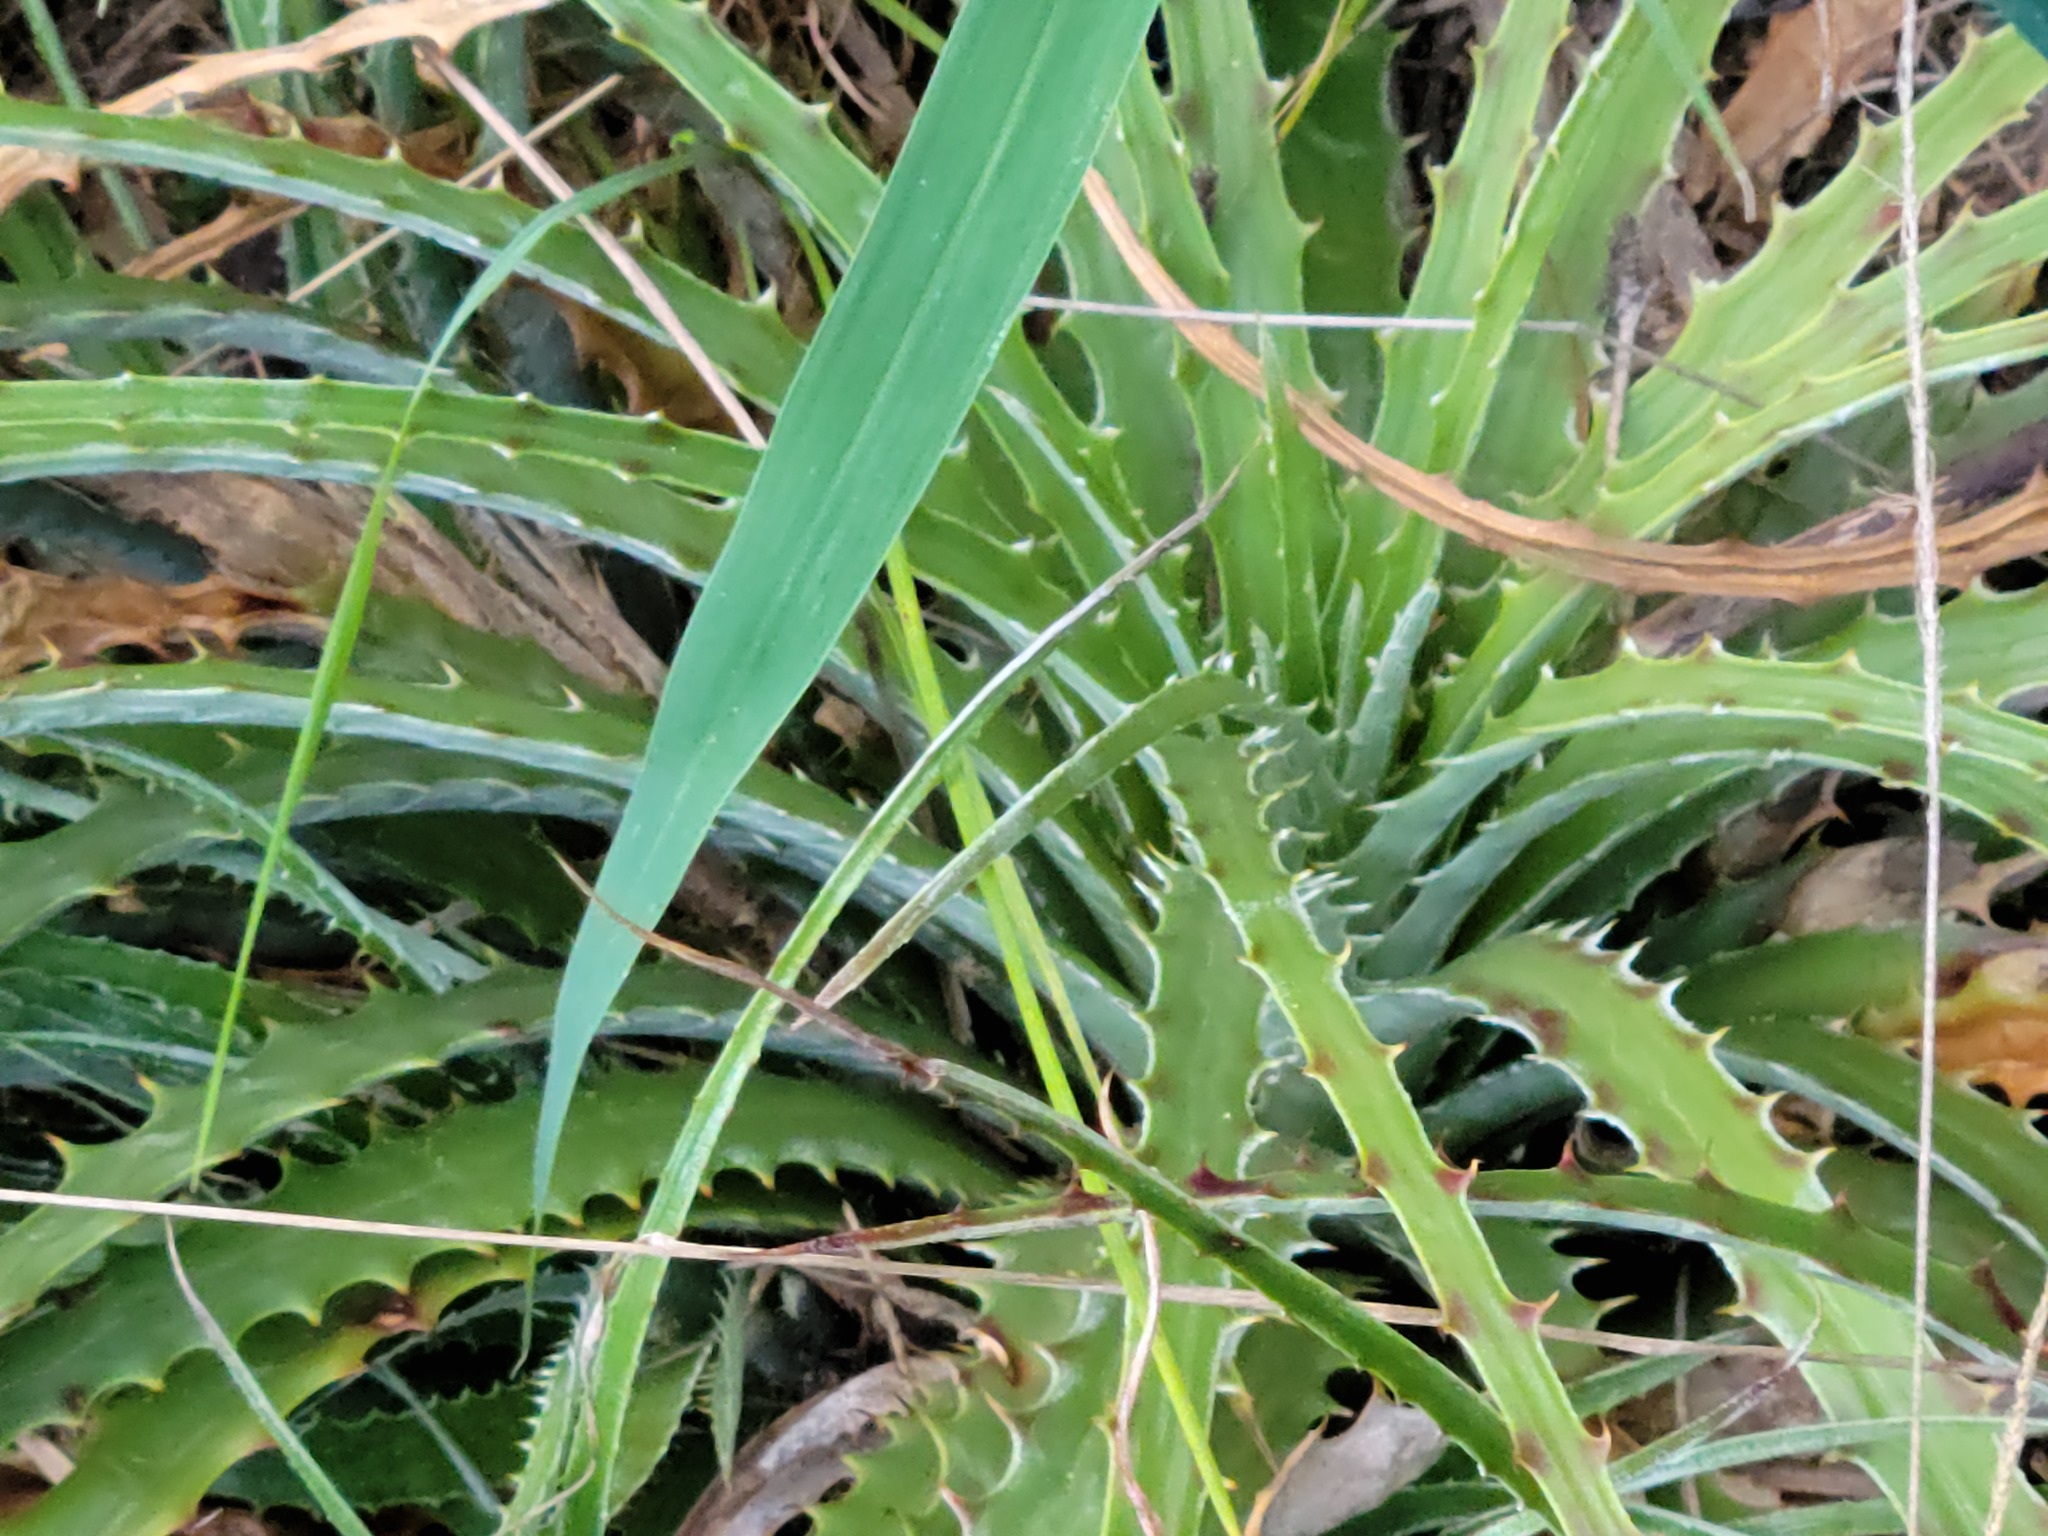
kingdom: Plantae
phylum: Tracheophyta
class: Liliopsida
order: Poales
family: Bromeliaceae
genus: Hechtia
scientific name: Hechtia glomerata
